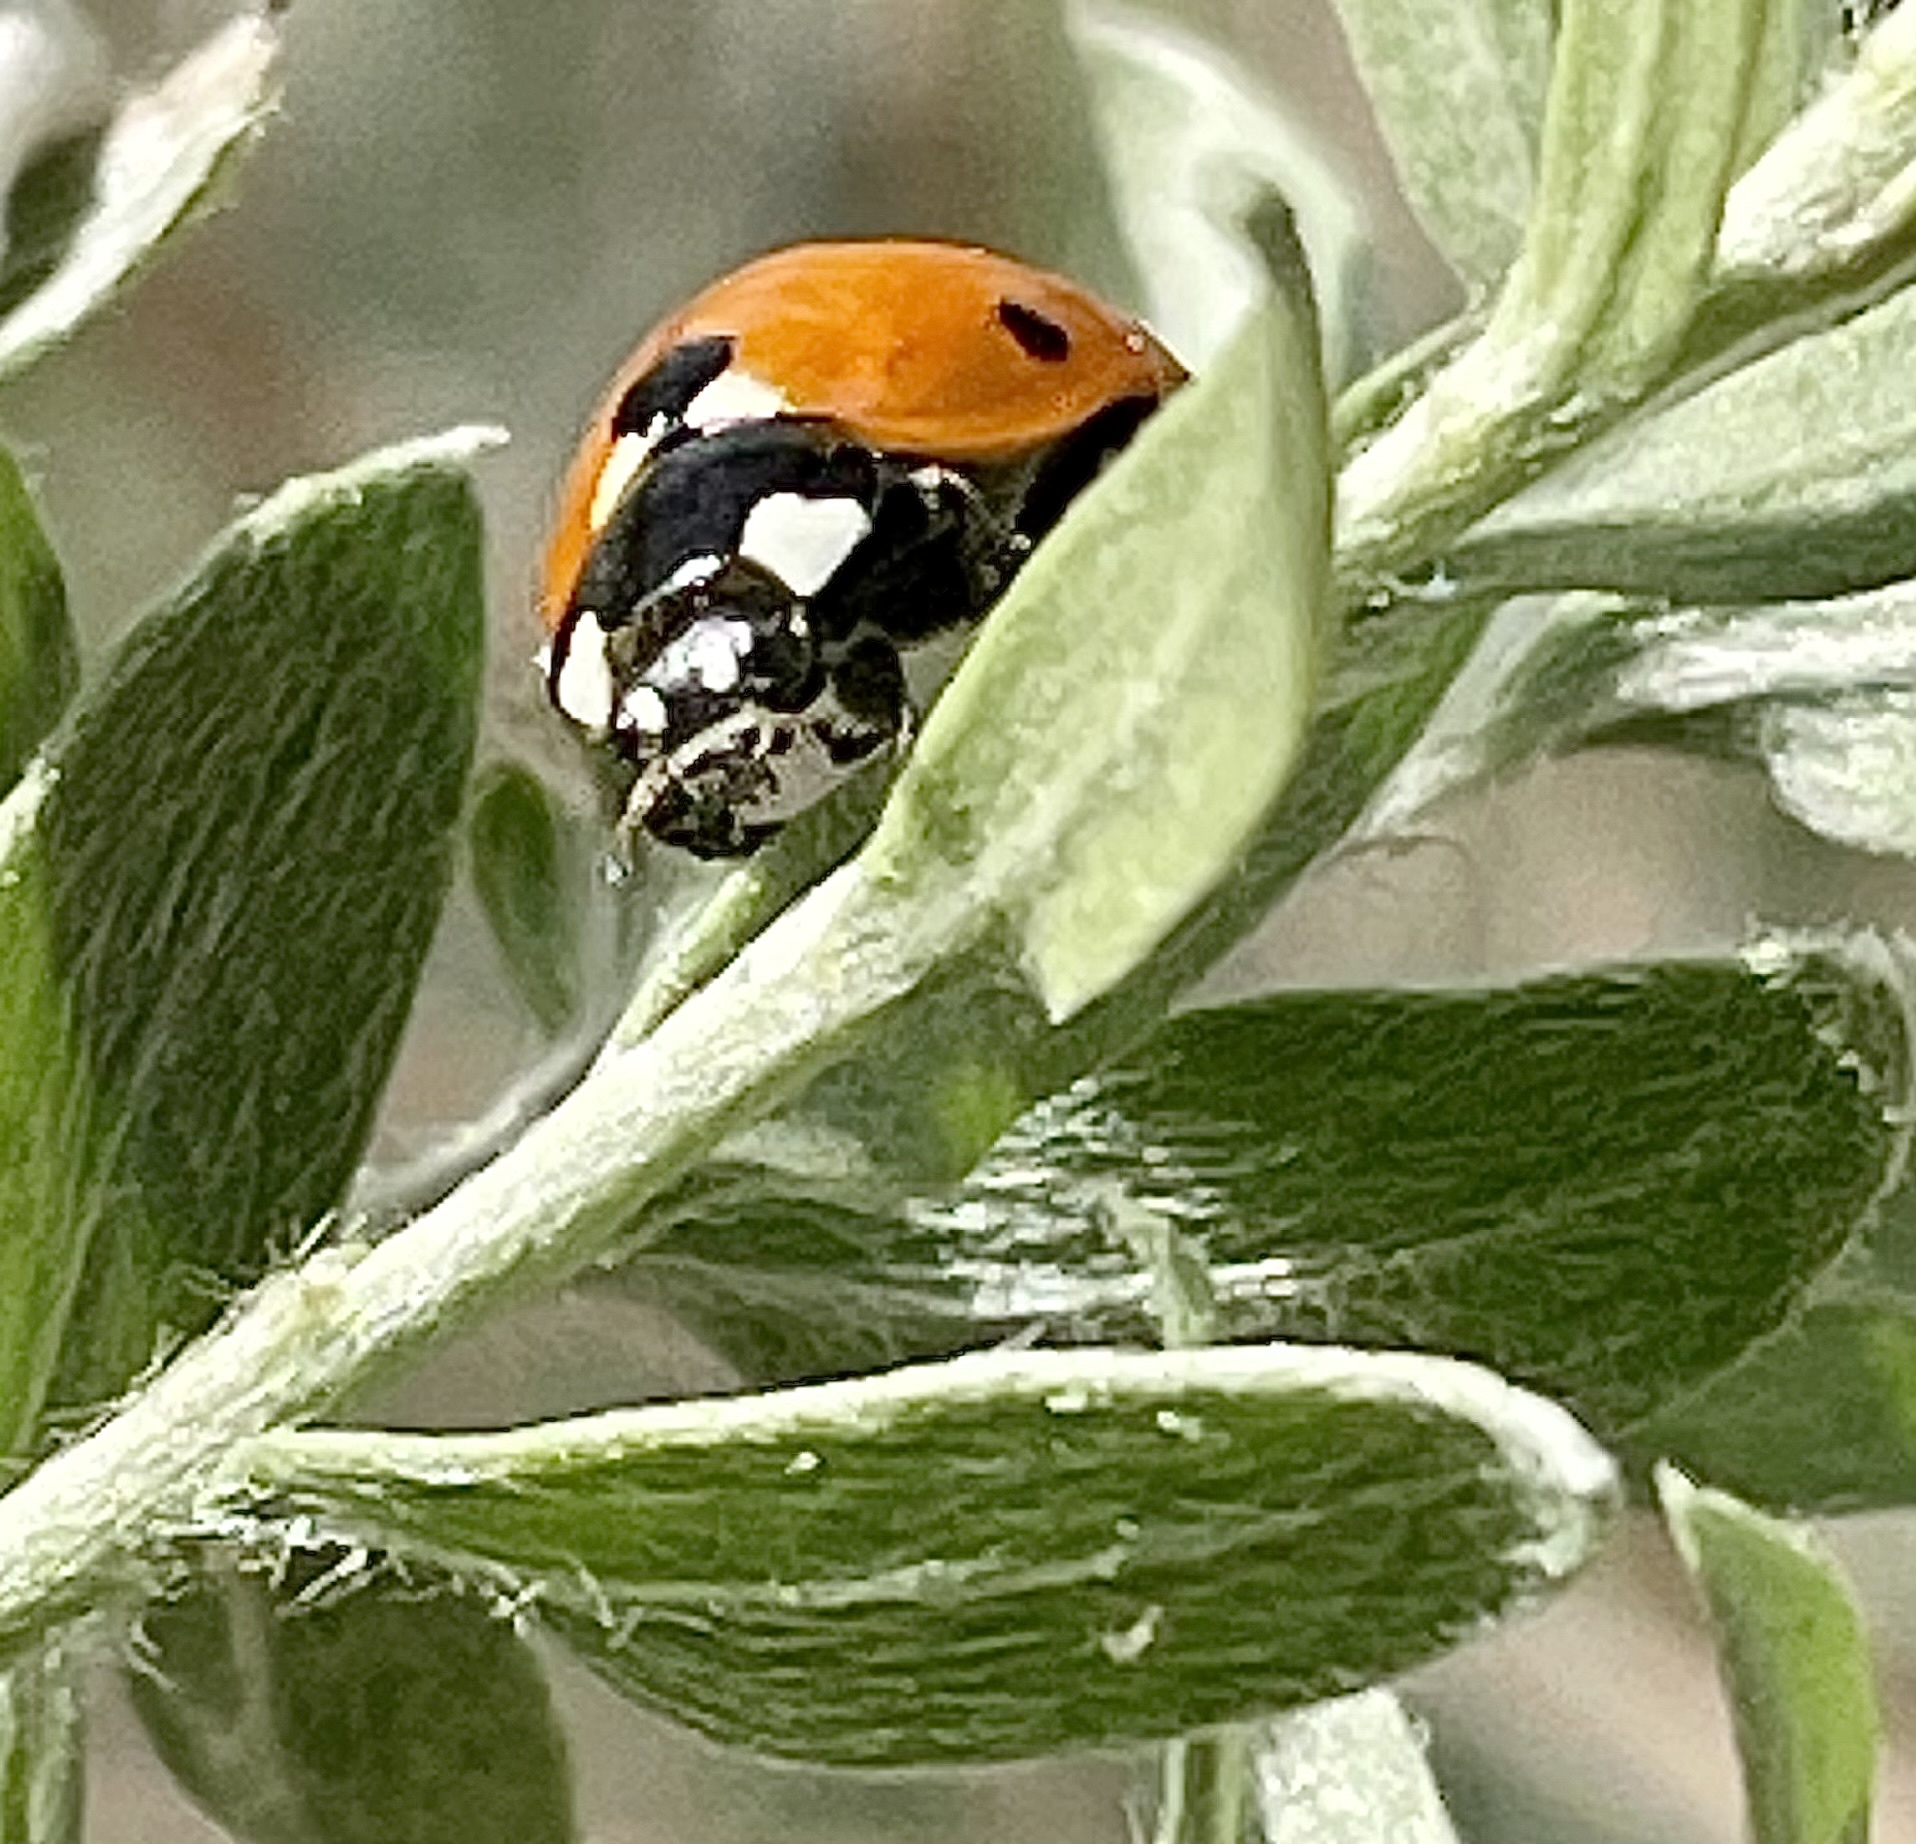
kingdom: Animalia
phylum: Arthropoda
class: Insecta
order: Coleoptera
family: Coccinellidae
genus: Coccinella
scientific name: Coccinella septempunctata
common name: Sevenspotted lady beetle
